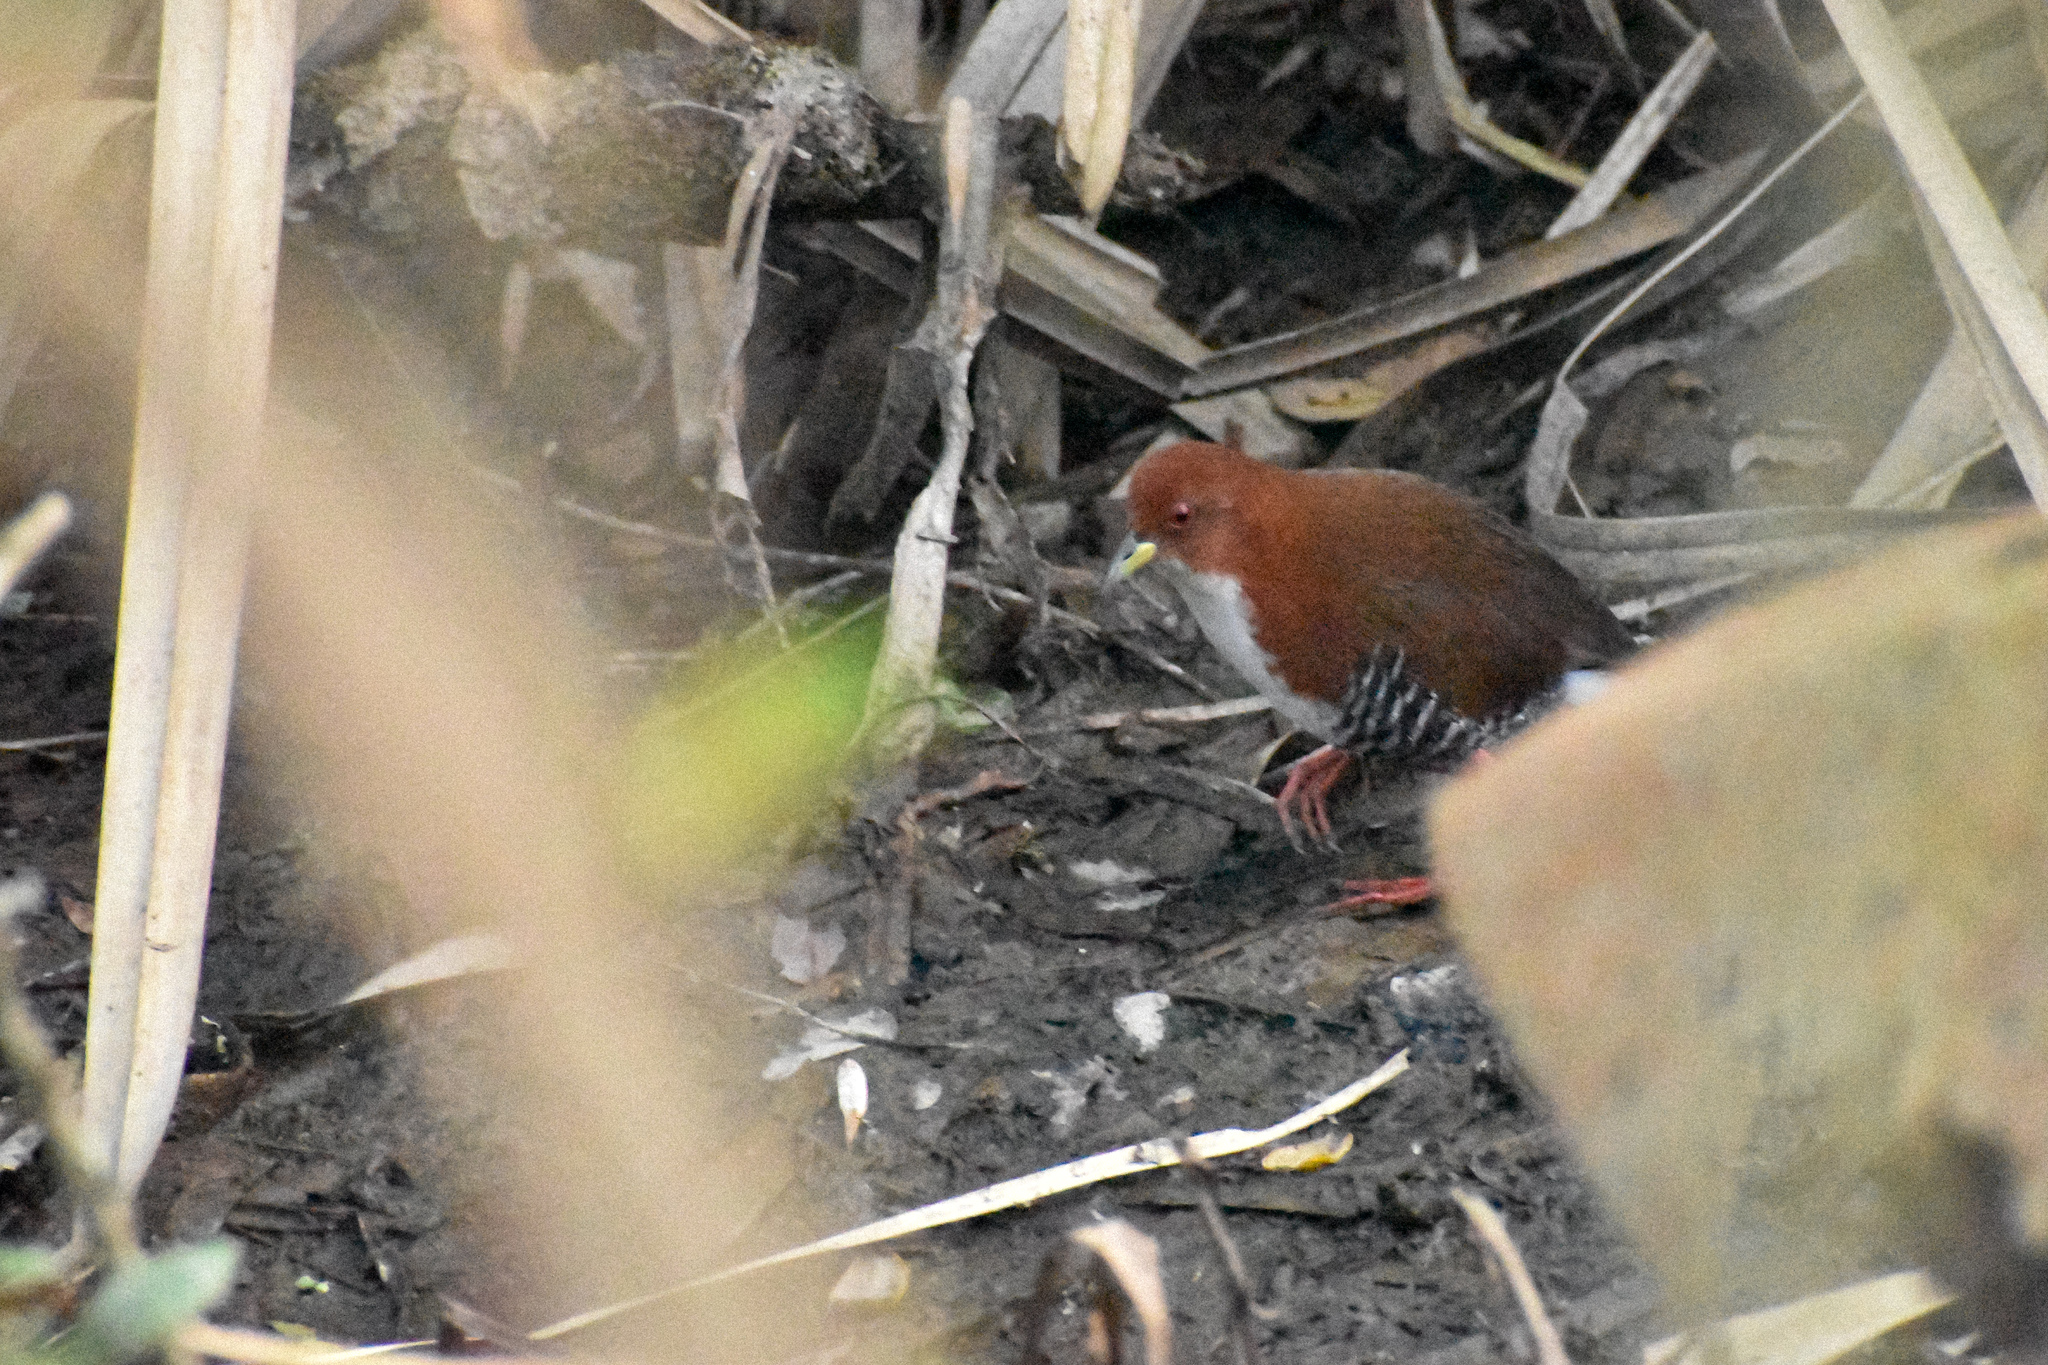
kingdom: Animalia
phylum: Chordata
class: Aves
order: Gruiformes
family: Rallidae
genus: Laterallus
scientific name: Laterallus leucopyrrhus
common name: Red-and-white crake
